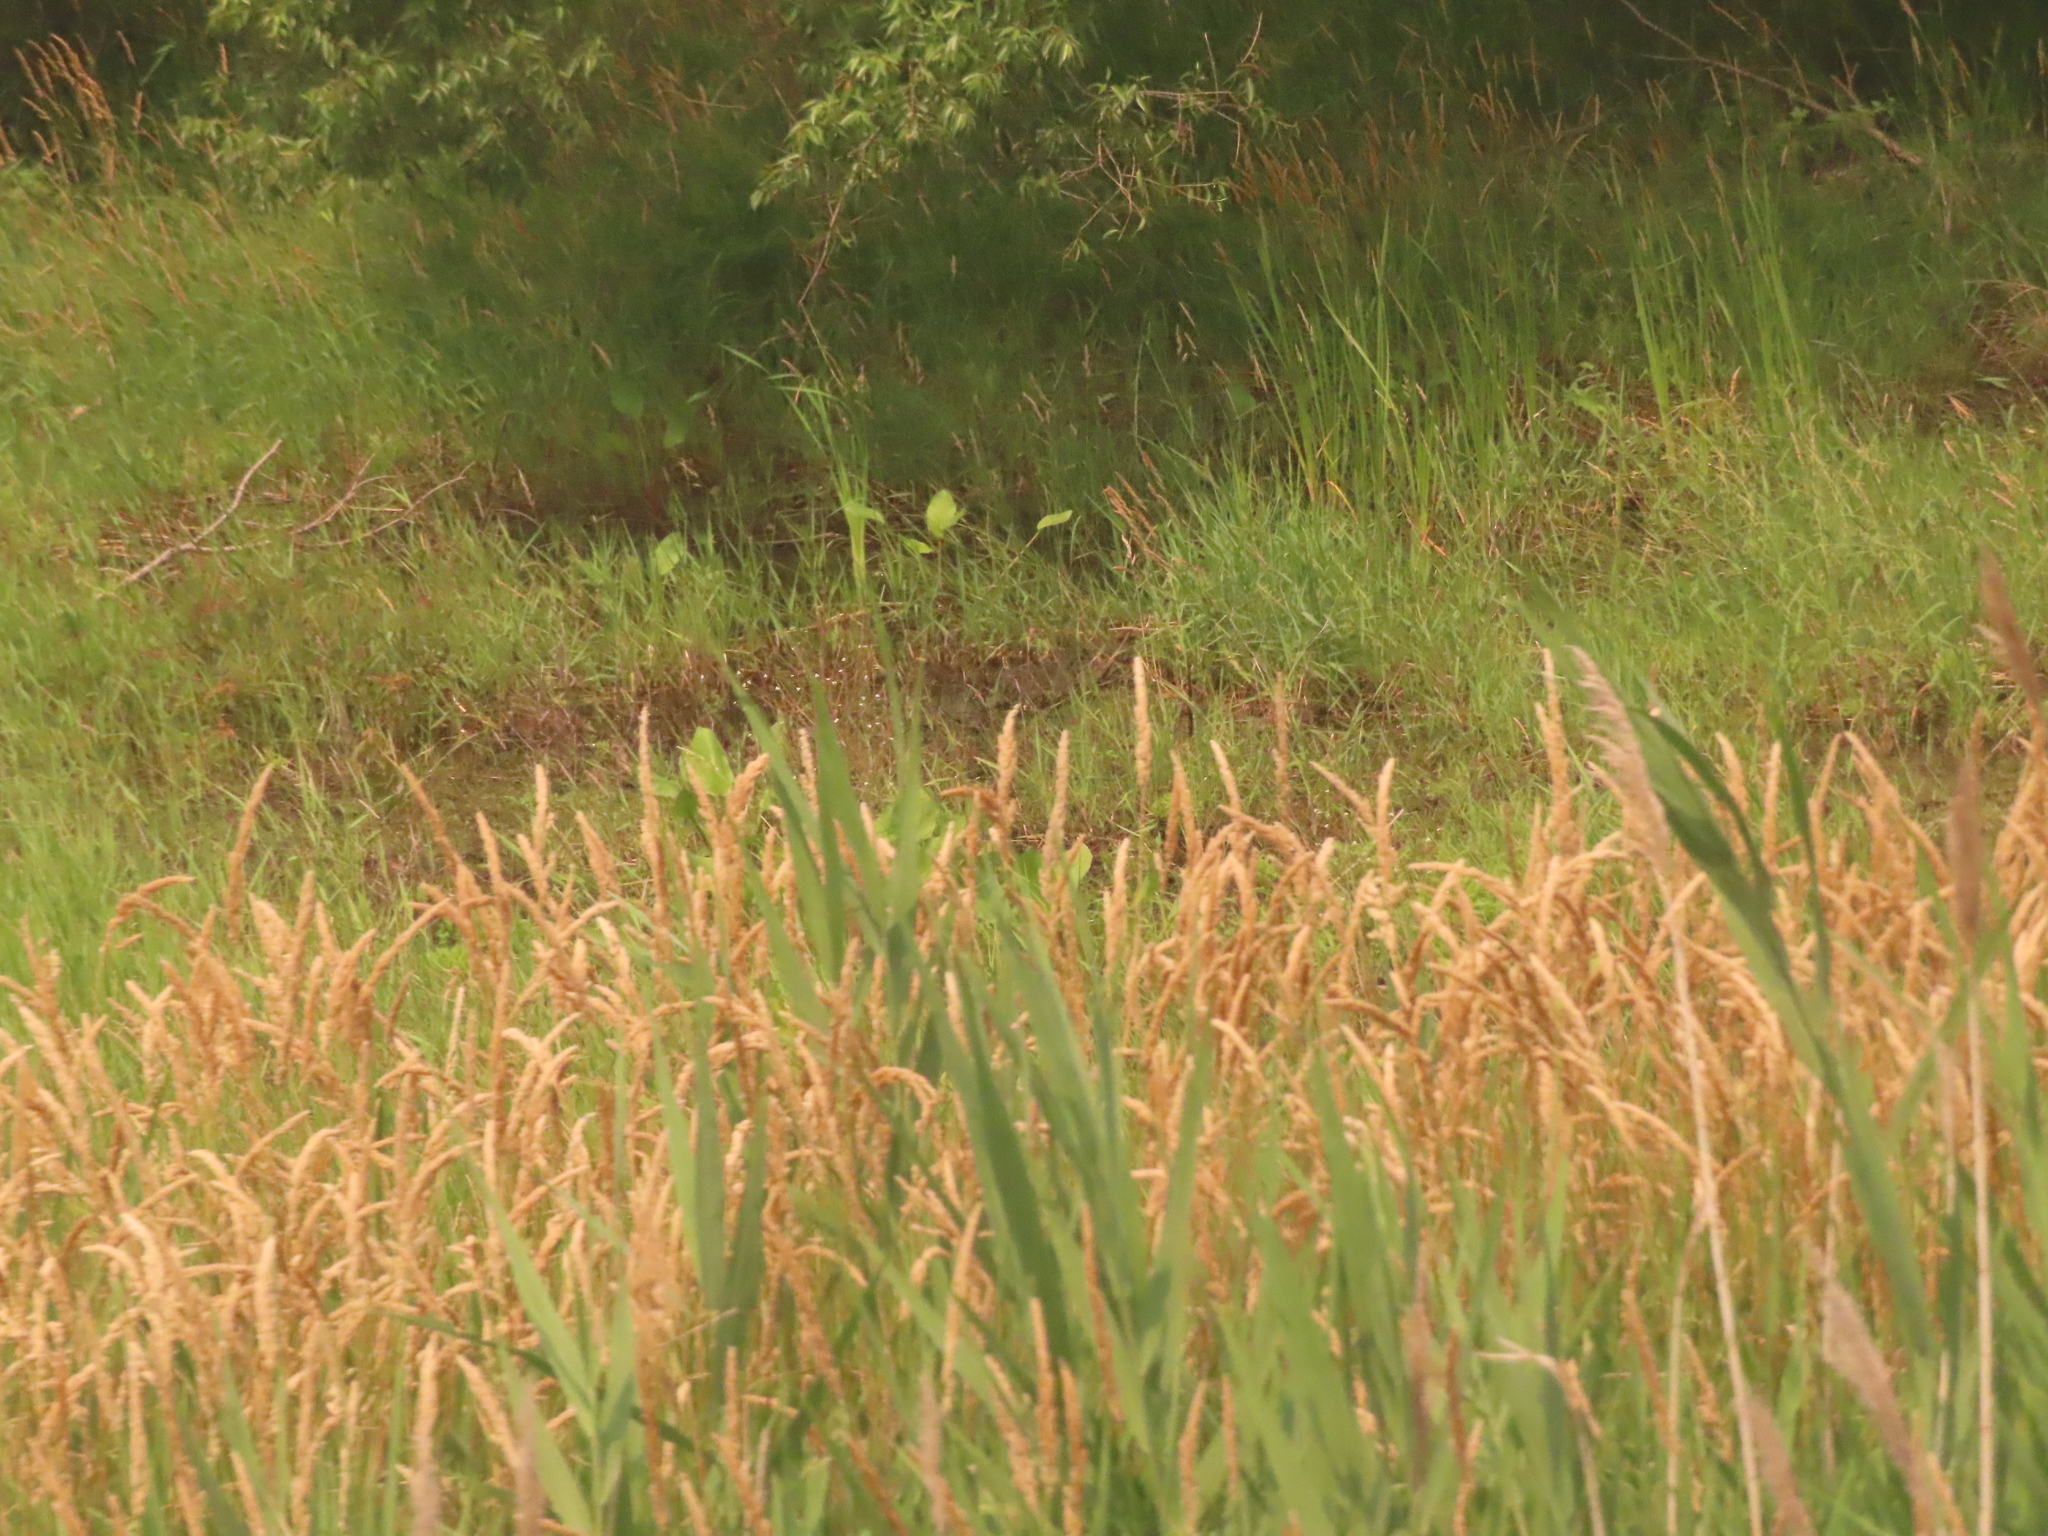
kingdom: Plantae
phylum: Tracheophyta
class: Liliopsida
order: Poales
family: Poaceae
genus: Phalaris
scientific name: Phalaris arundinacea
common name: Reed canary-grass
